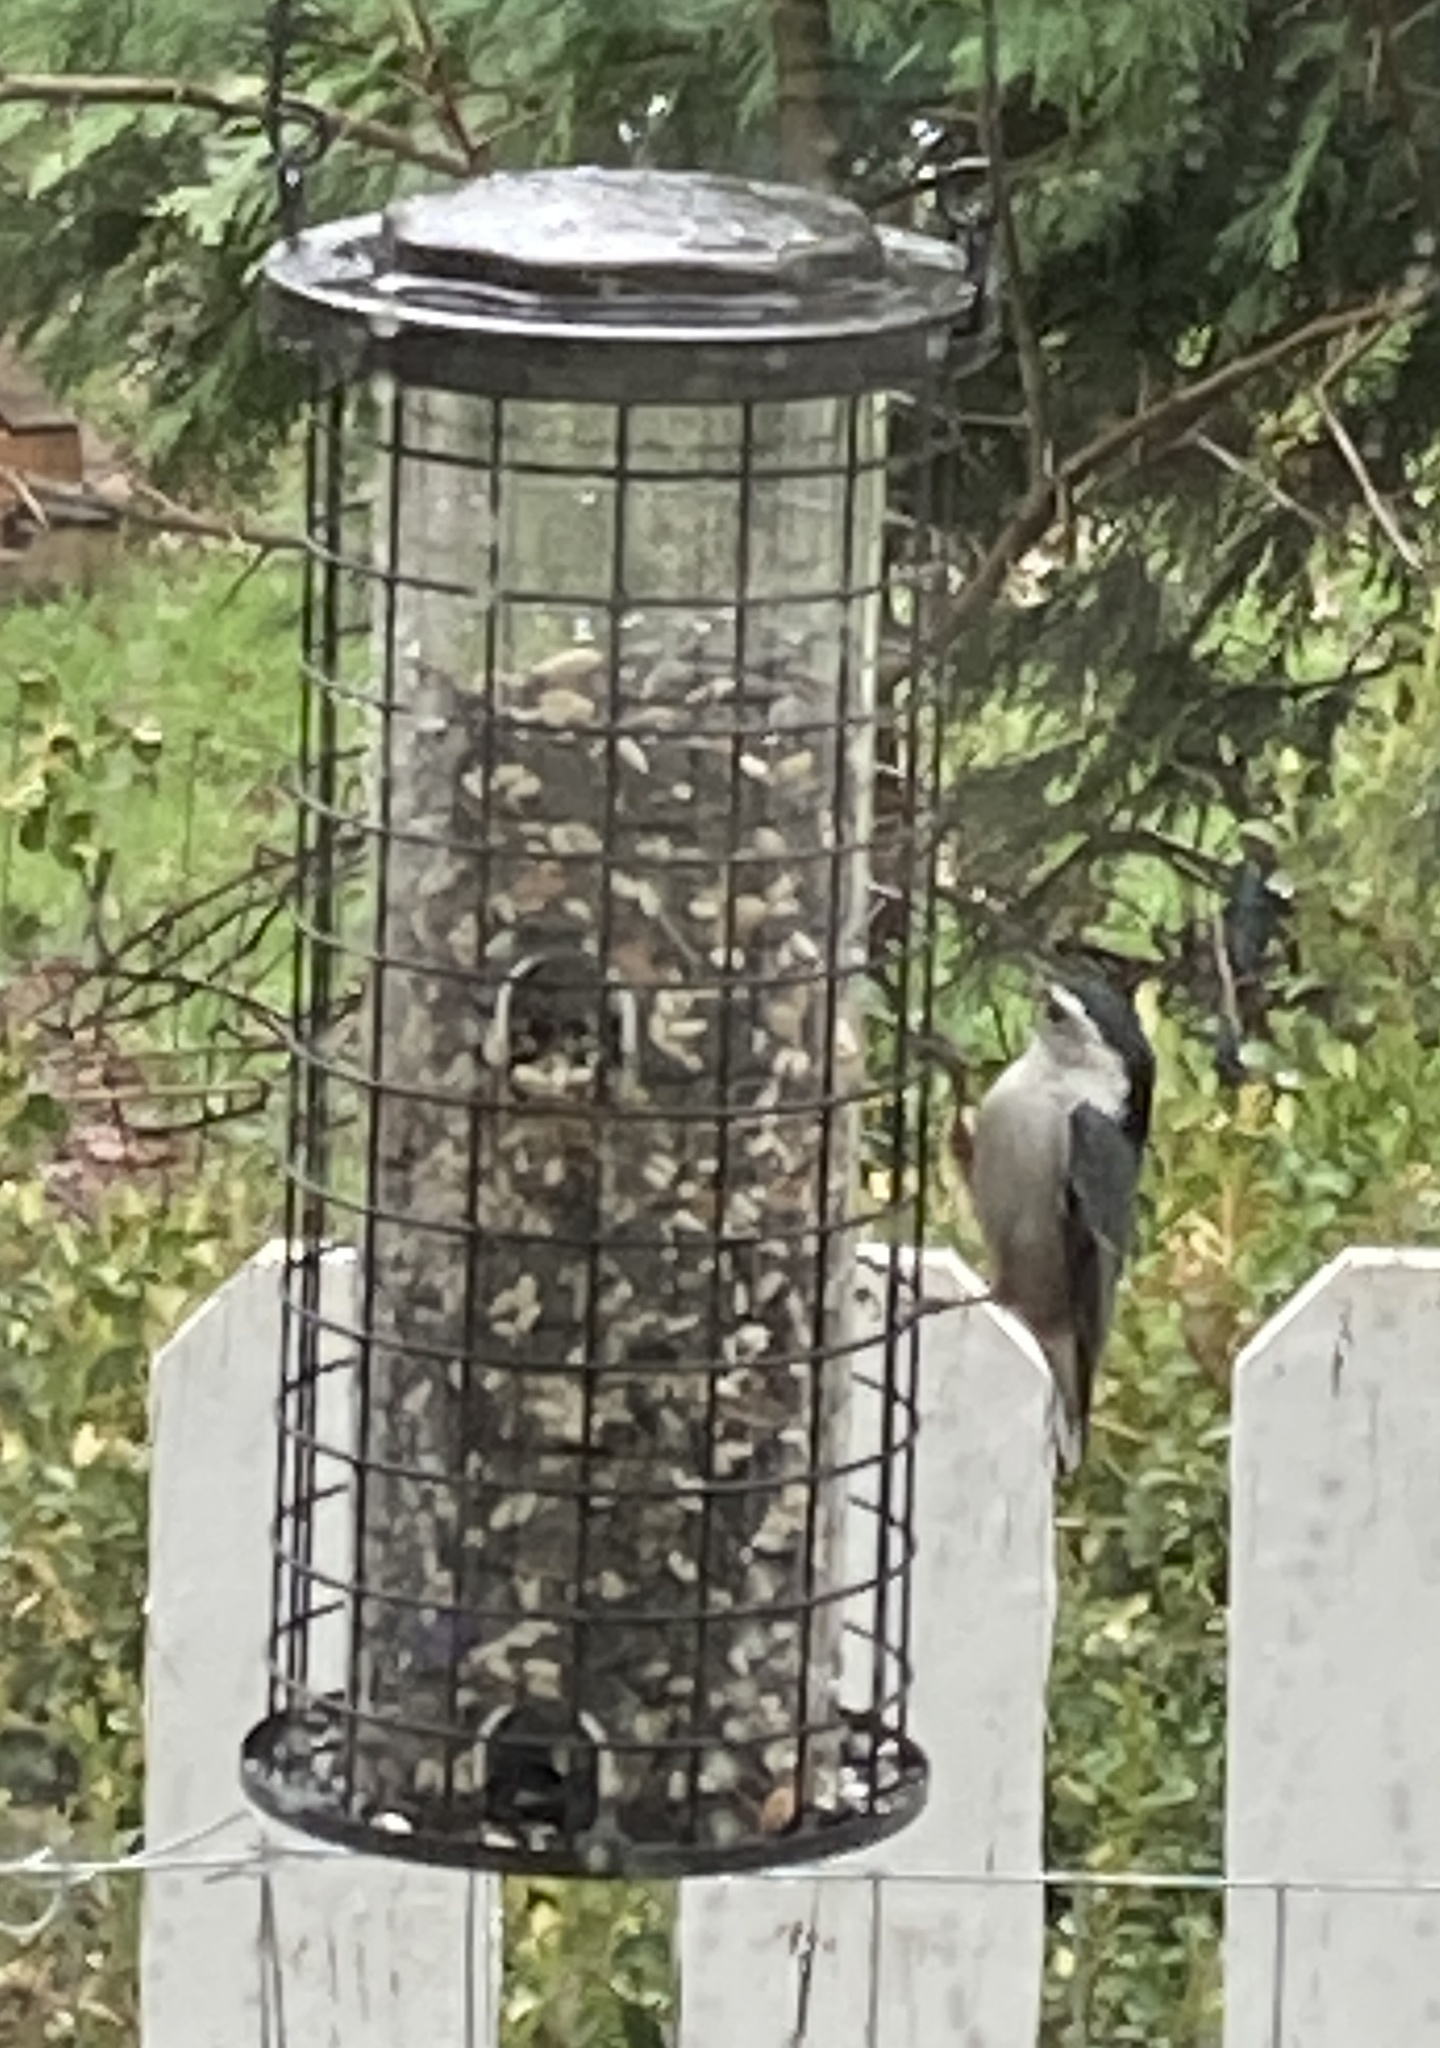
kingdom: Animalia
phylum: Chordata
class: Aves
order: Passeriformes
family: Sittidae
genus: Sitta
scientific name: Sitta carolinensis
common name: White-breasted nuthatch
